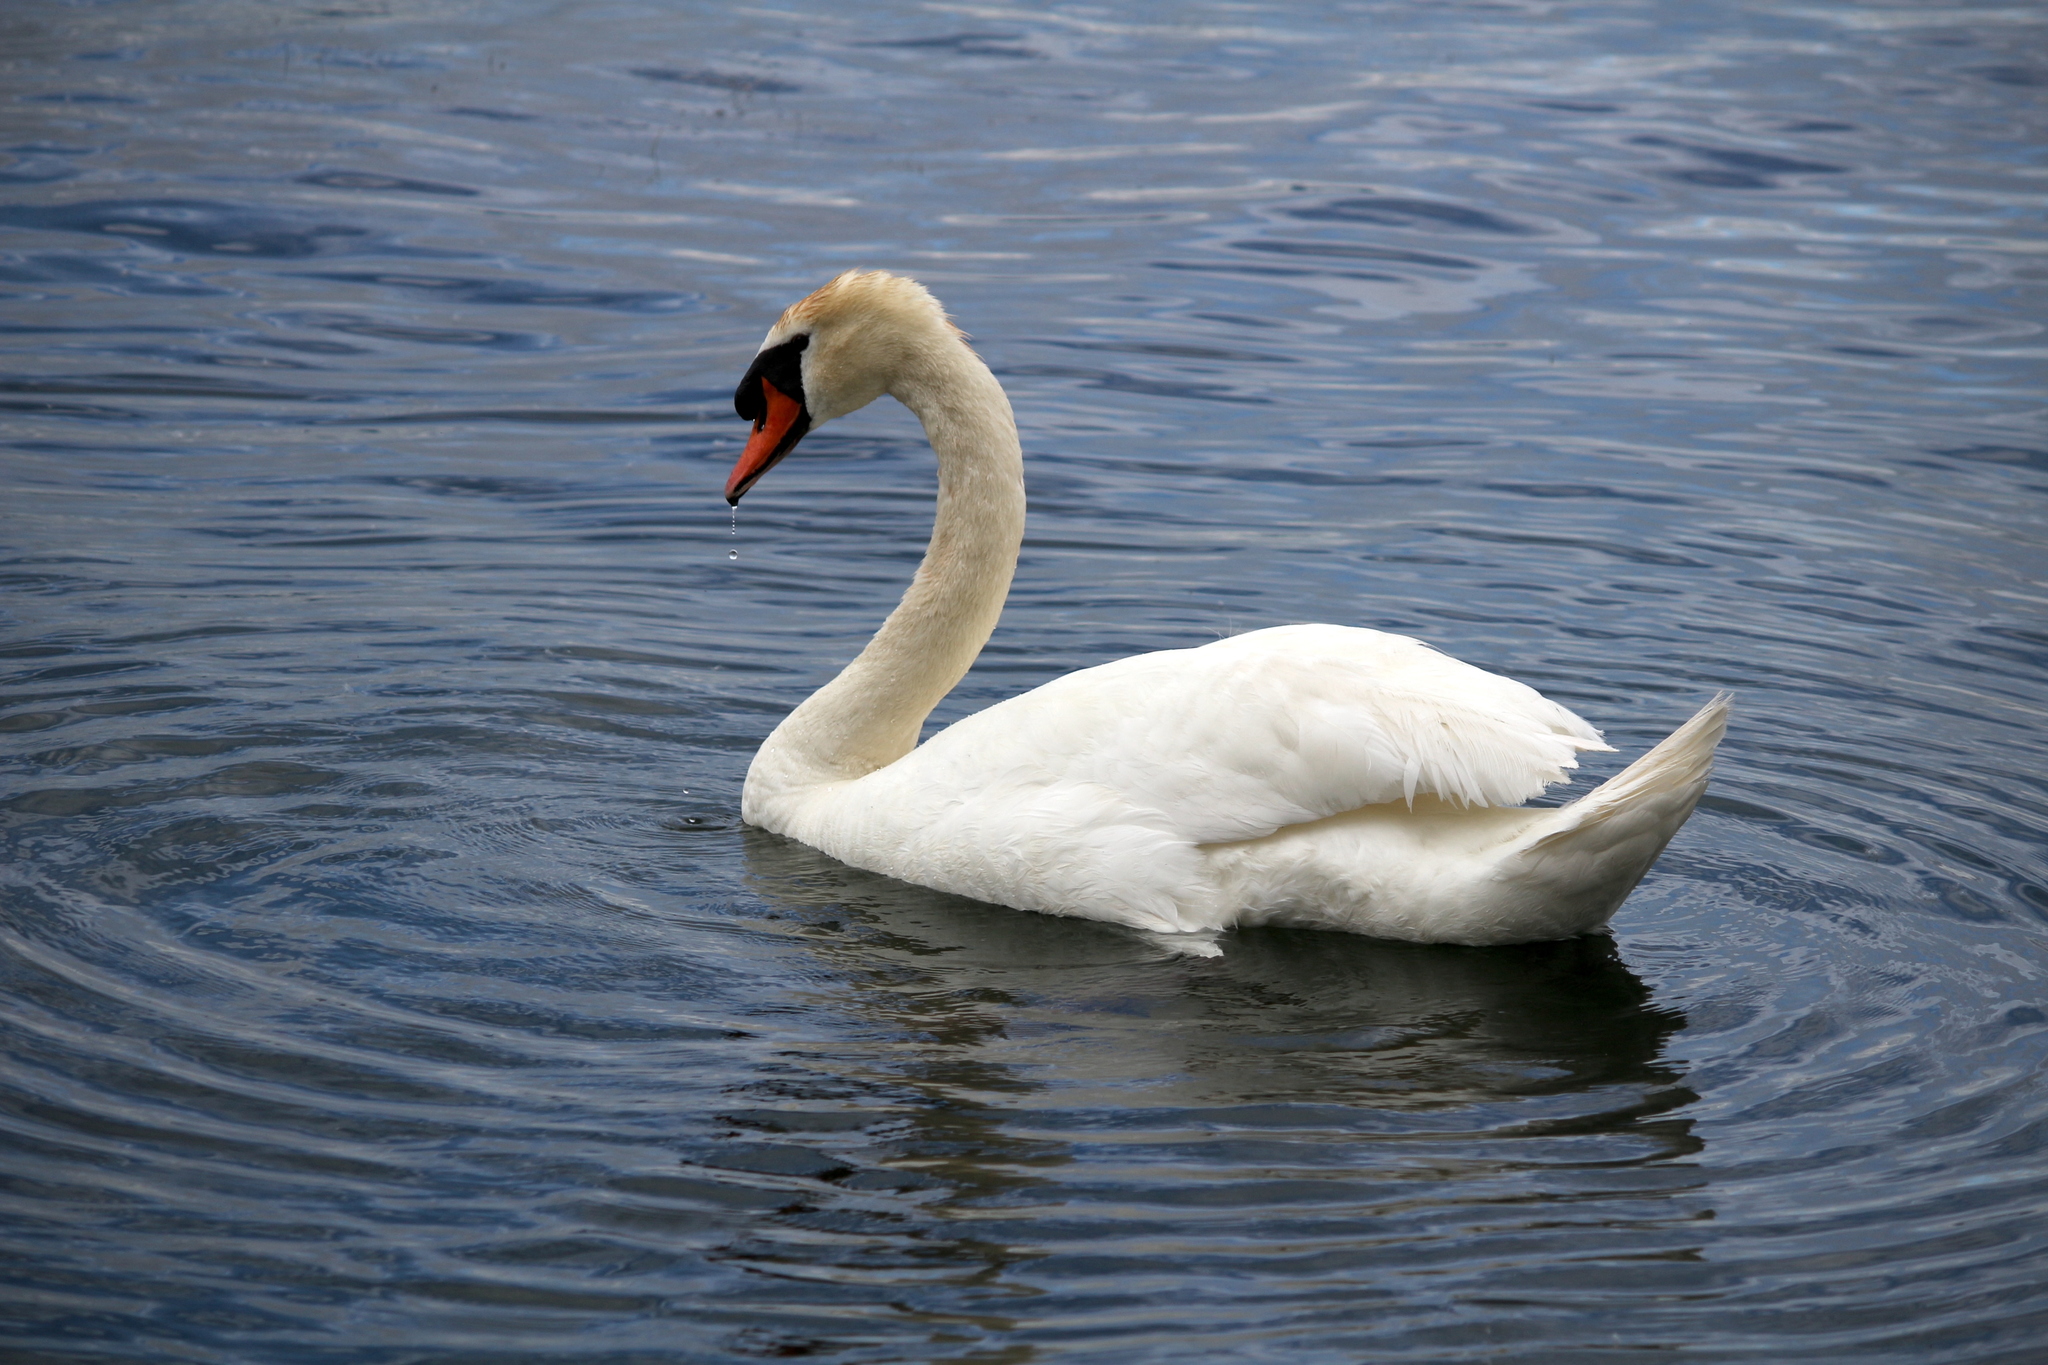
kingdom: Animalia
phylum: Chordata
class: Aves
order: Anseriformes
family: Anatidae
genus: Cygnus
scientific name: Cygnus olor
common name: Mute swan
